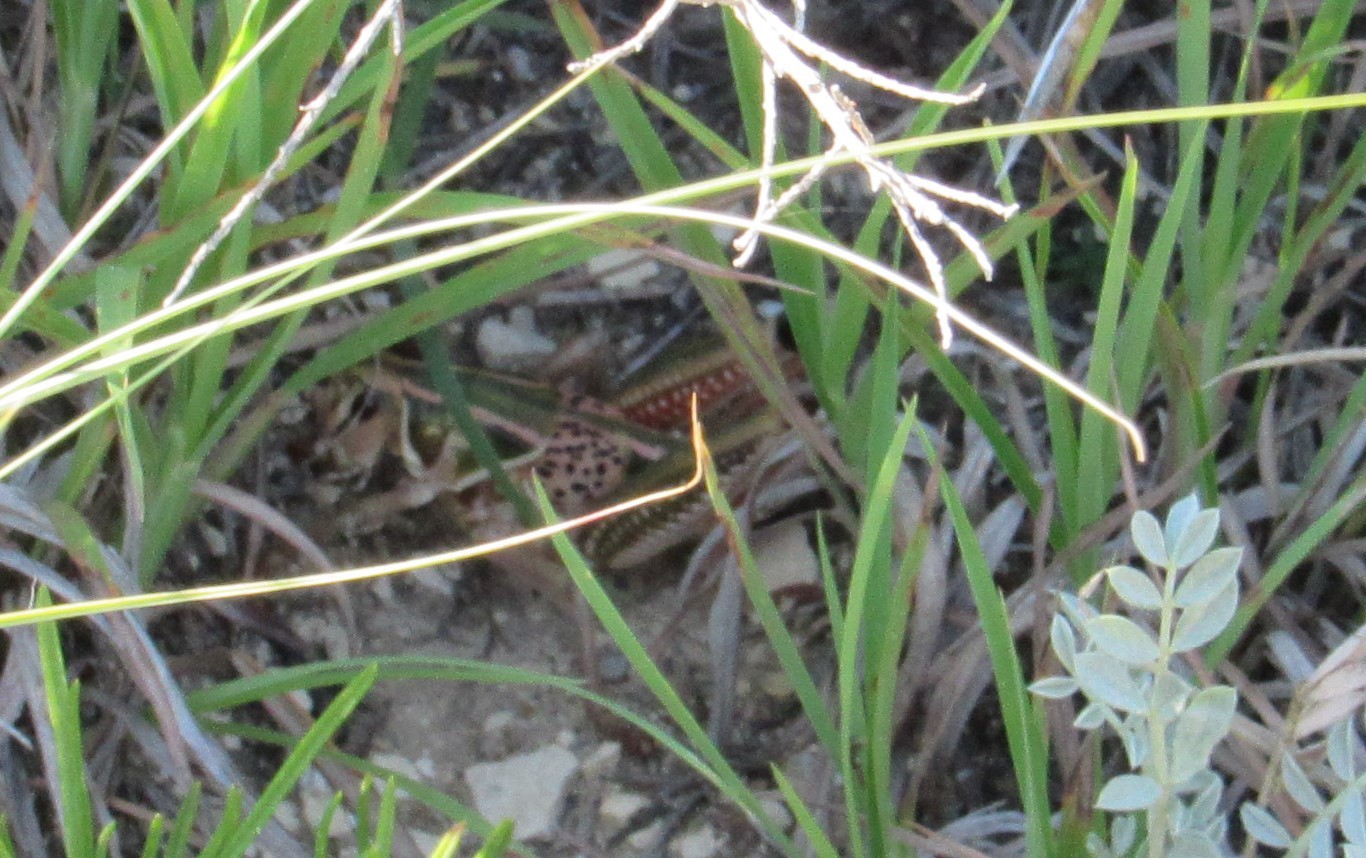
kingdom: Animalia
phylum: Arthropoda
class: Insecta
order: Orthoptera
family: Romaleidae
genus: Brachystola
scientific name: Brachystola magna
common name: Plains lubber grasshopper
